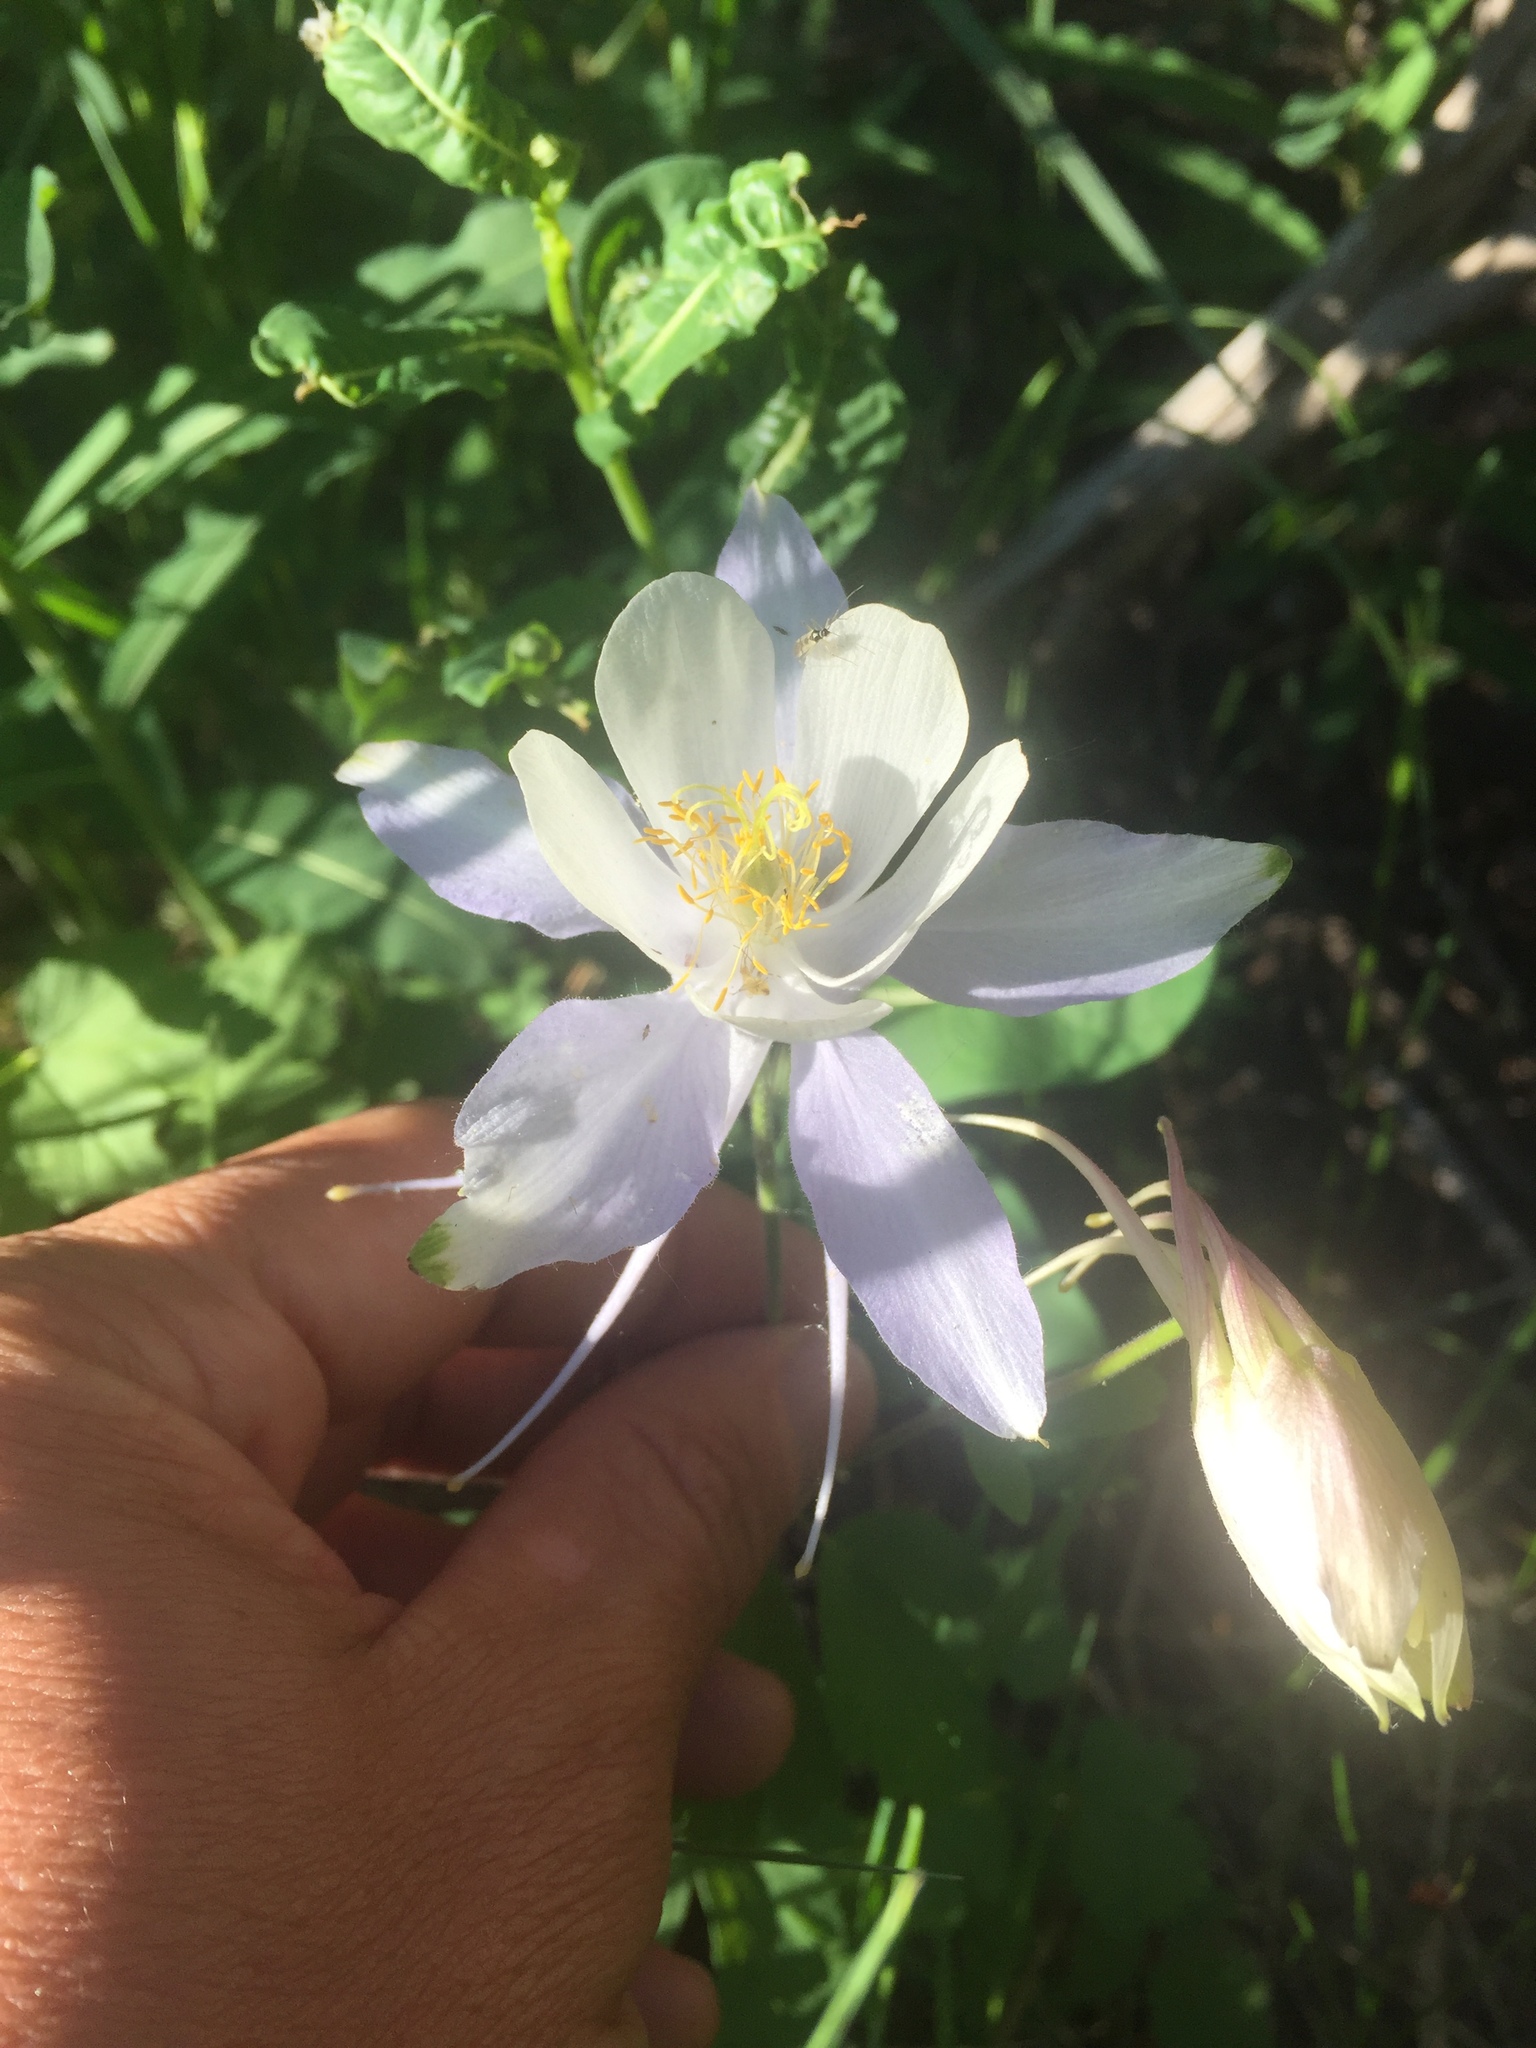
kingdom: Plantae
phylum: Tracheophyta
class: Magnoliopsida
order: Ranunculales
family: Ranunculaceae
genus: Aquilegia
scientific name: Aquilegia coerulea
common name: Rocky mountain columbine
